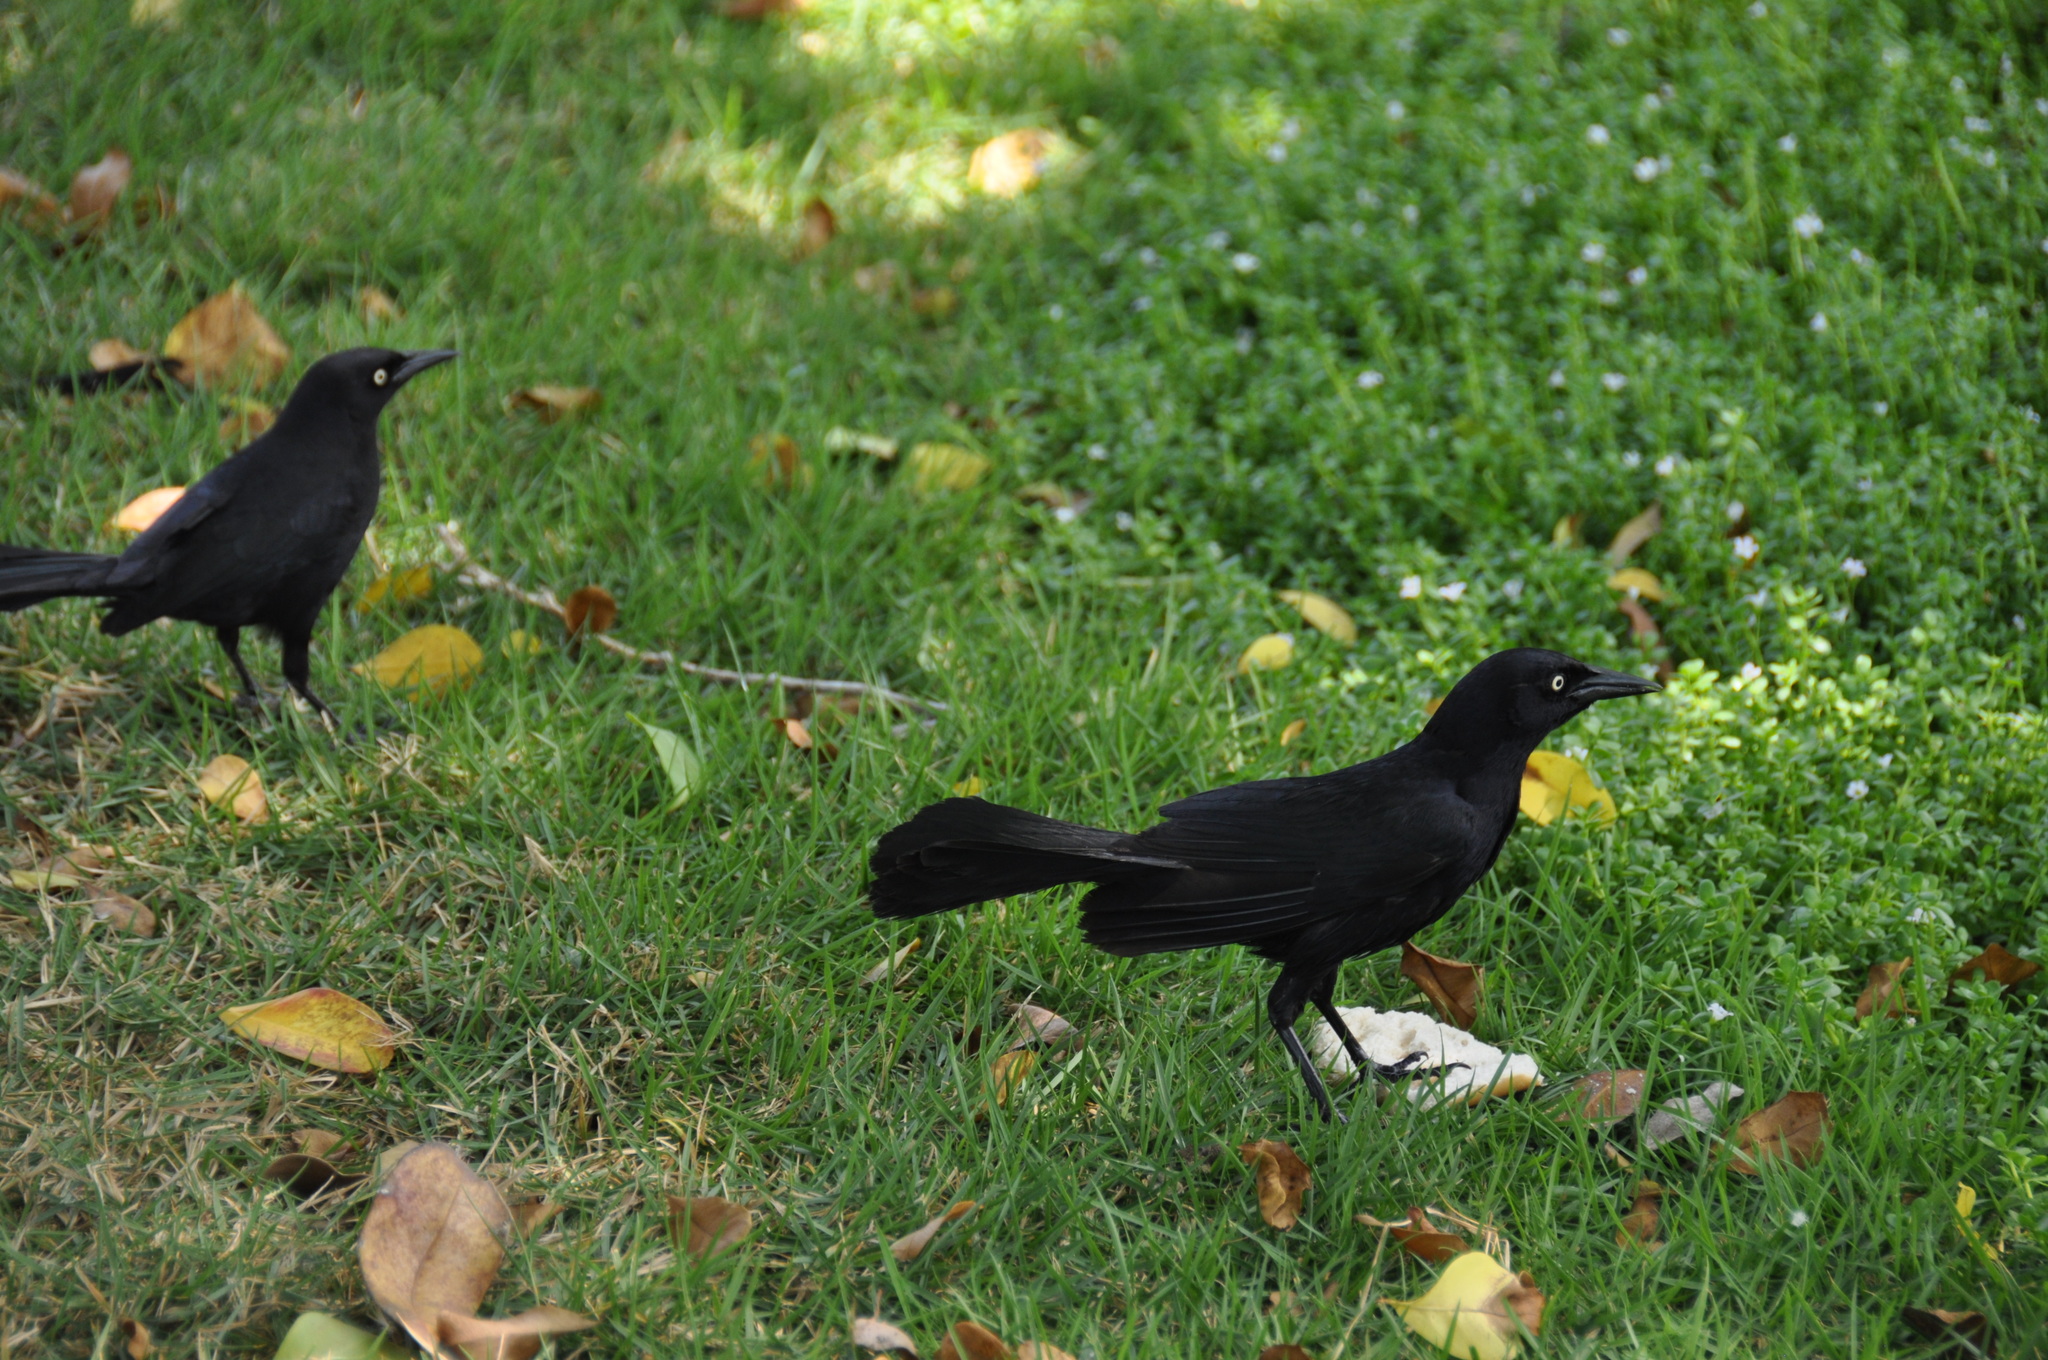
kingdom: Animalia
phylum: Chordata
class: Aves
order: Passeriformes
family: Icteridae
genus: Quiscalus
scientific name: Quiscalus niger
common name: Greater antillean grackle
